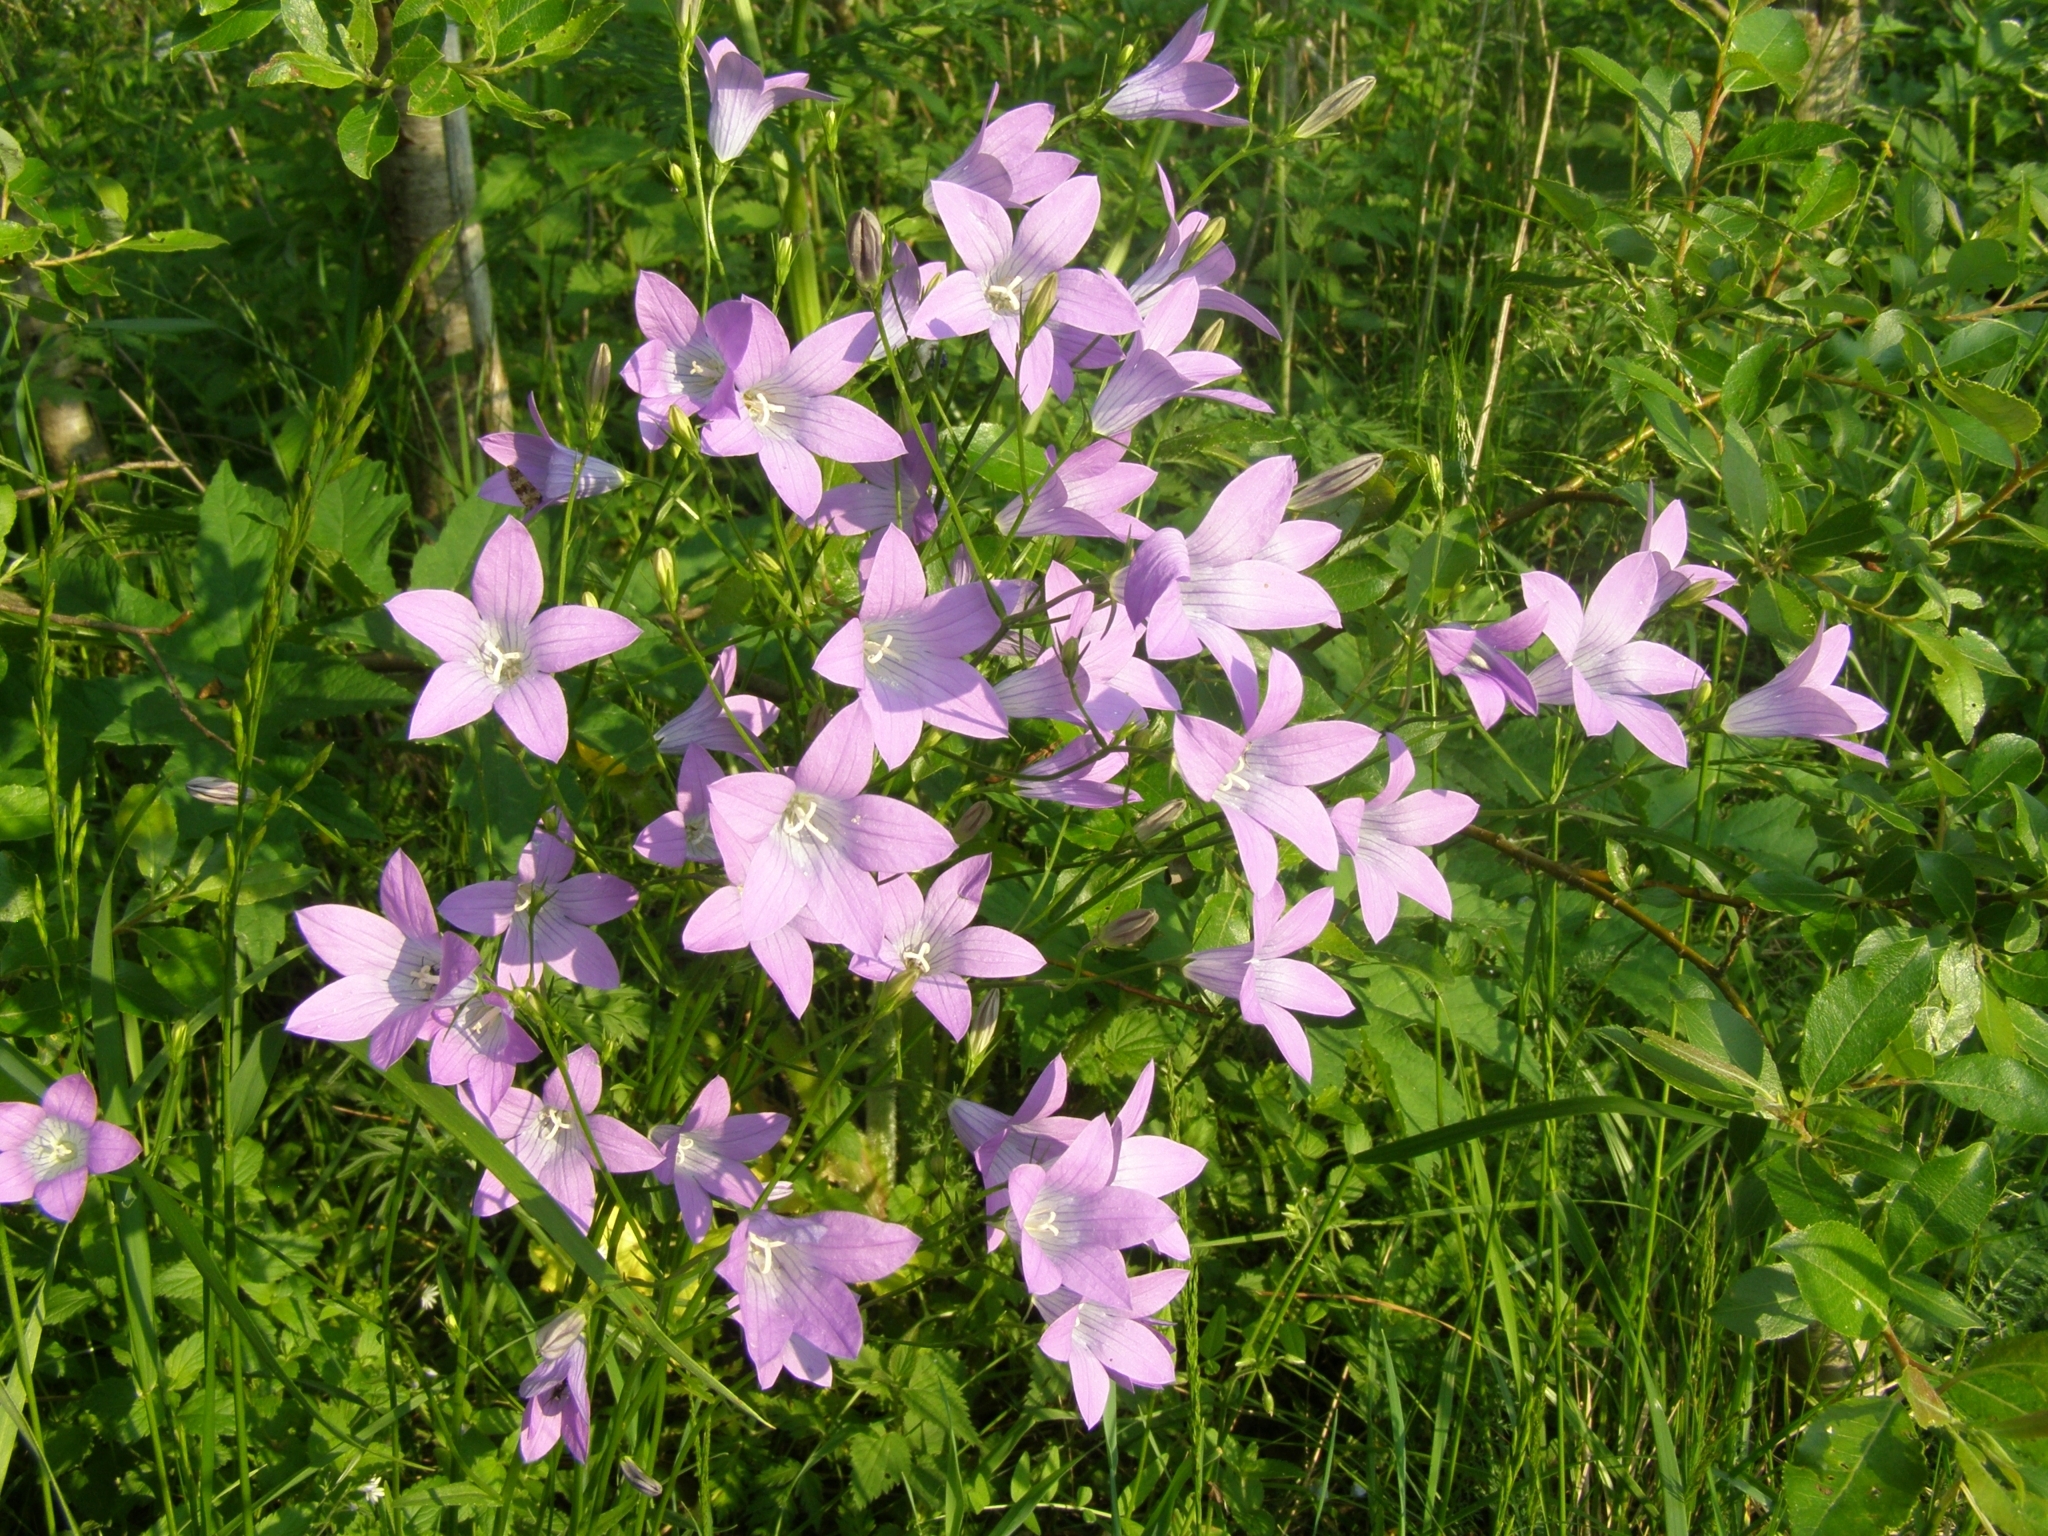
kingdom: Plantae
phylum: Tracheophyta
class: Magnoliopsida
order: Asterales
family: Campanulaceae
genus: Campanula
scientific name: Campanula patula
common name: Spreading bellflower
